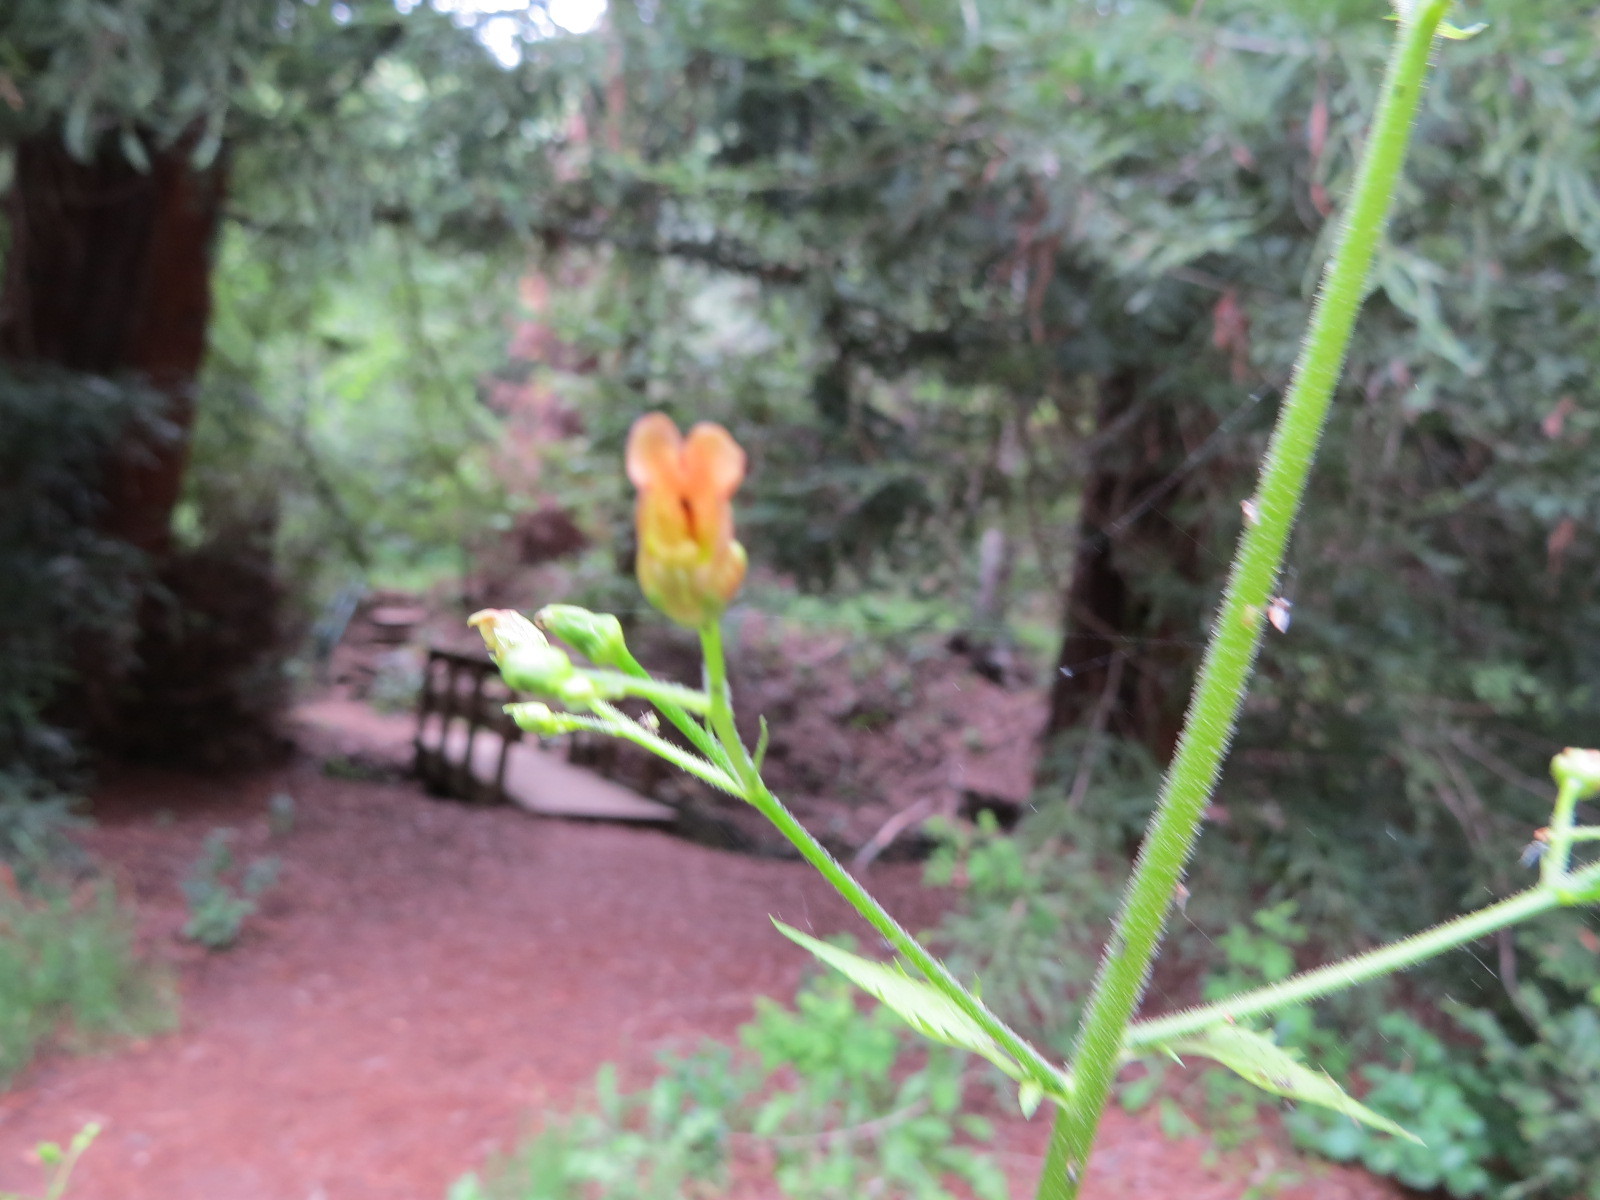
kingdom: Plantae
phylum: Tracheophyta
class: Magnoliopsida
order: Lamiales
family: Scrophulariaceae
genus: Scrophularia
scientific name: Scrophularia californica
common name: California figwort
